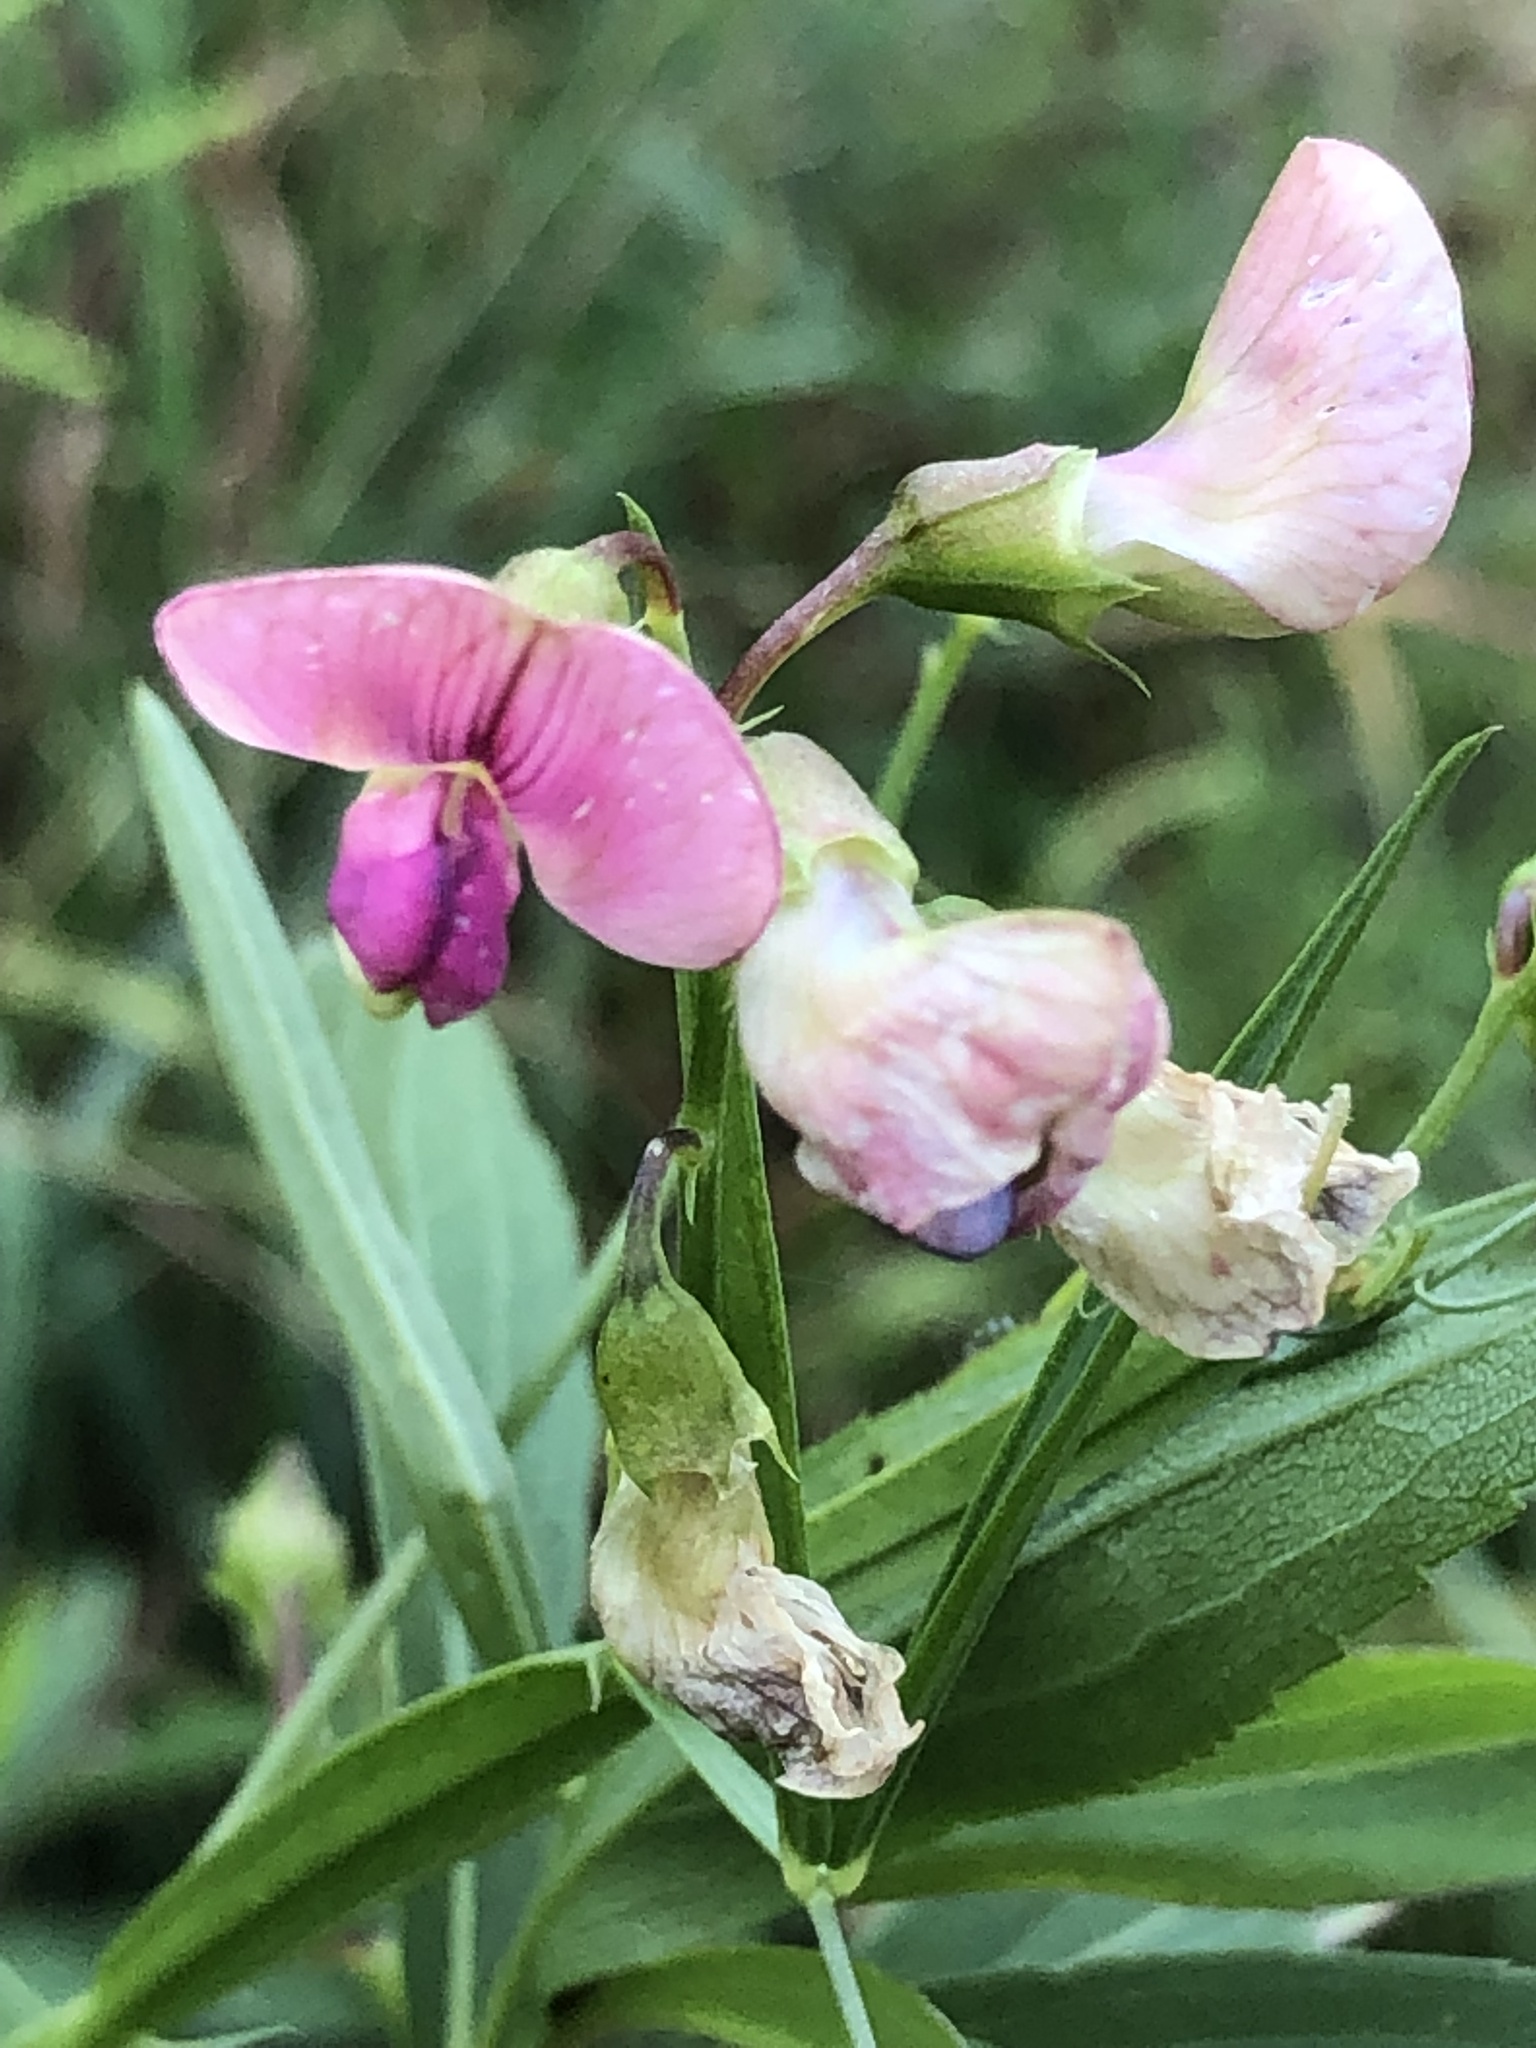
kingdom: Plantae
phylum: Tracheophyta
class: Magnoliopsida
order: Fabales
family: Fabaceae
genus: Lathyrus
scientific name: Lathyrus sylvestris
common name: Flat pea
